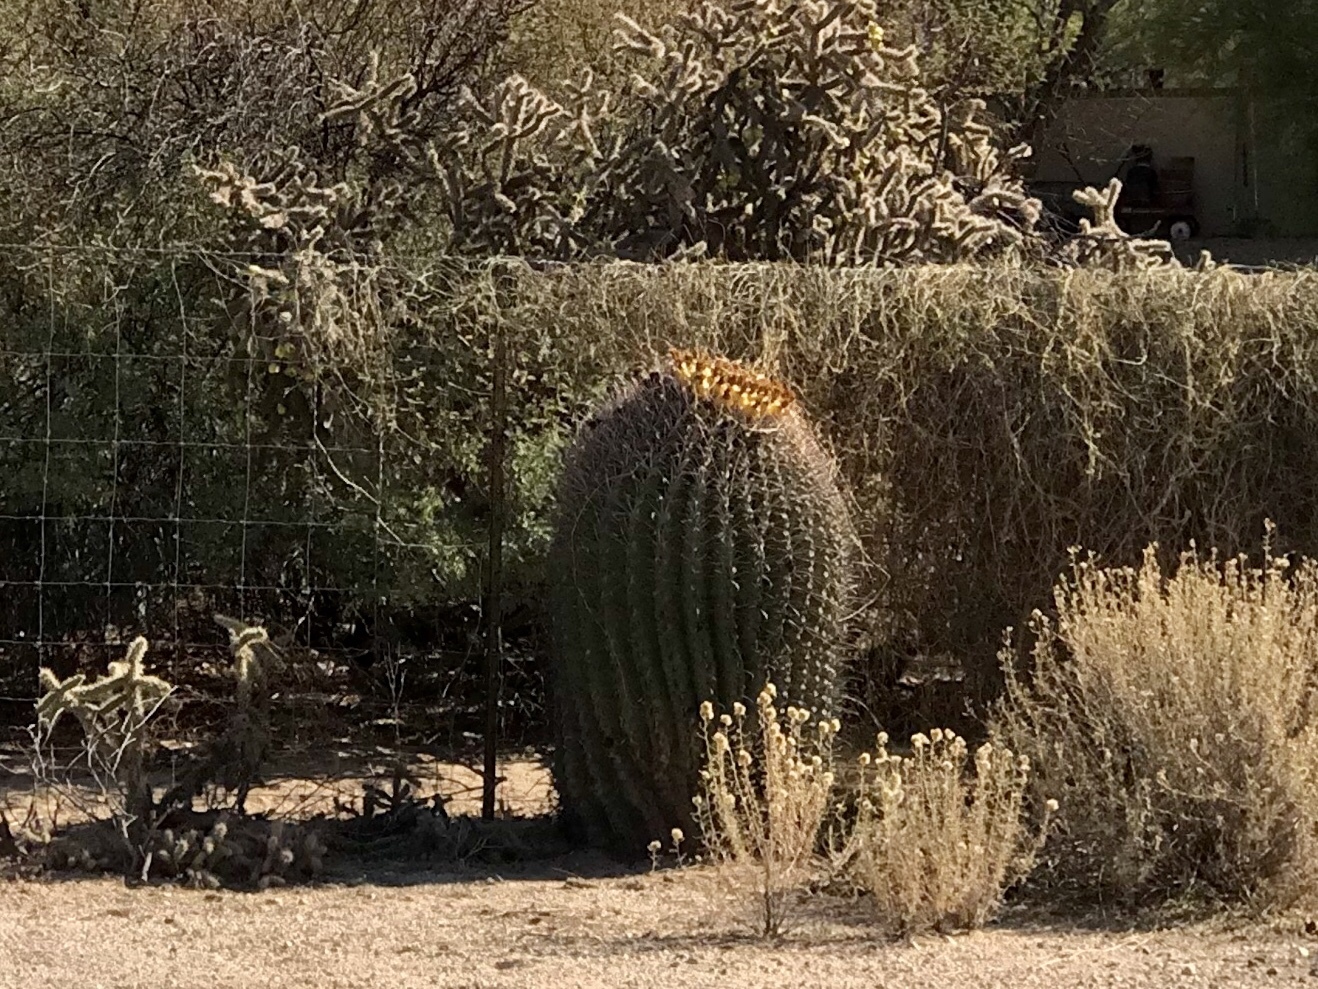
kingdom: Plantae
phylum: Tracheophyta
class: Magnoliopsida
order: Caryophyllales
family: Cactaceae
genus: Ferocactus
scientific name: Ferocactus wislizeni
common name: Candy barrel cactus
